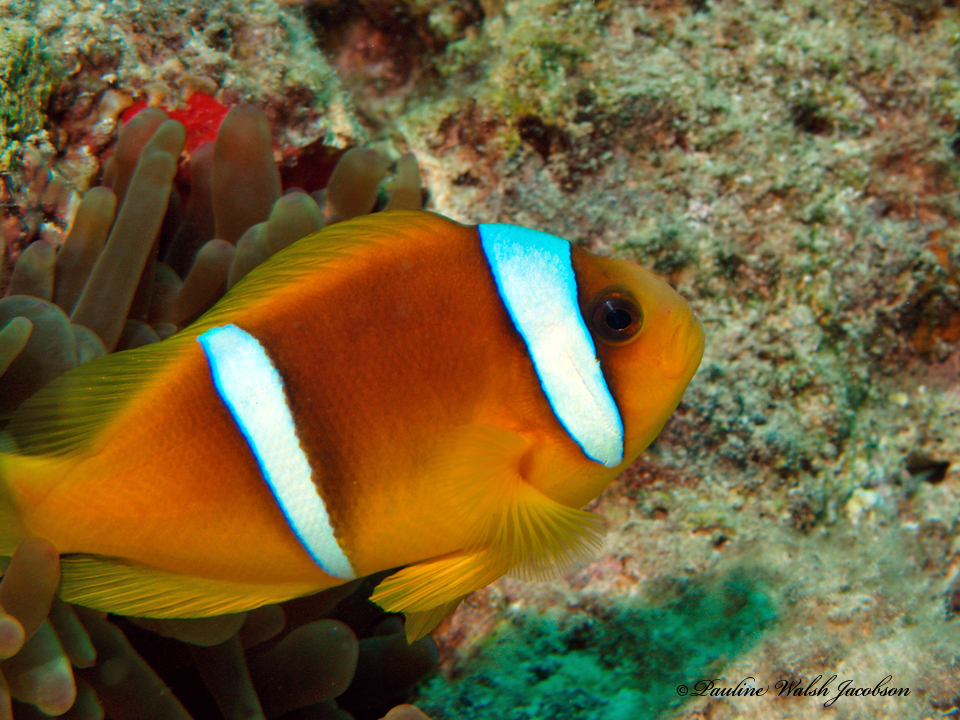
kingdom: Animalia
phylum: Chordata
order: Perciformes
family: Pomacentridae
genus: Amphiprion
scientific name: Amphiprion bicinctus
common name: Two-banded anemonefish
